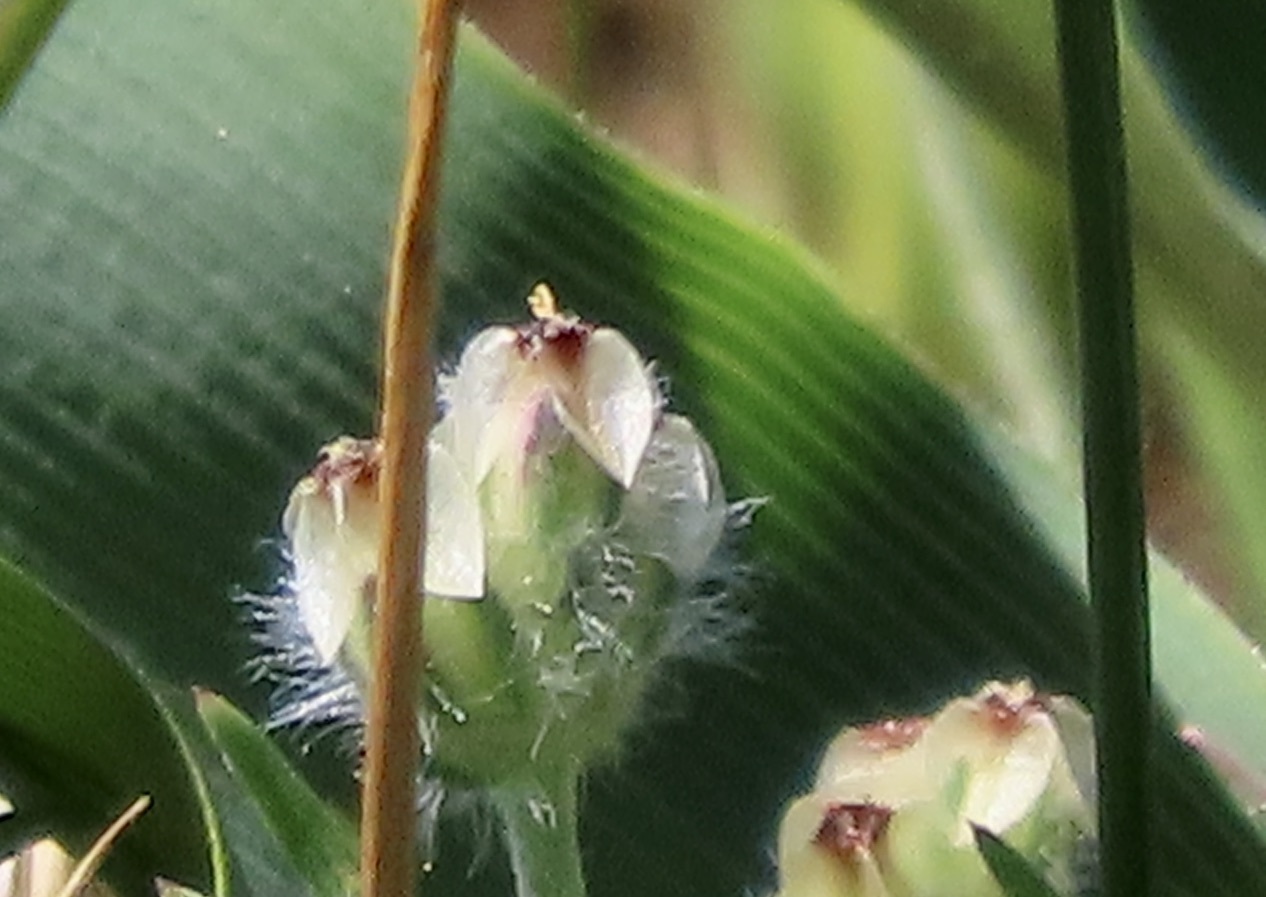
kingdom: Plantae
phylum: Tracheophyta
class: Magnoliopsida
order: Lamiales
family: Plantaginaceae
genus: Plantago
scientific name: Plantago erecta
